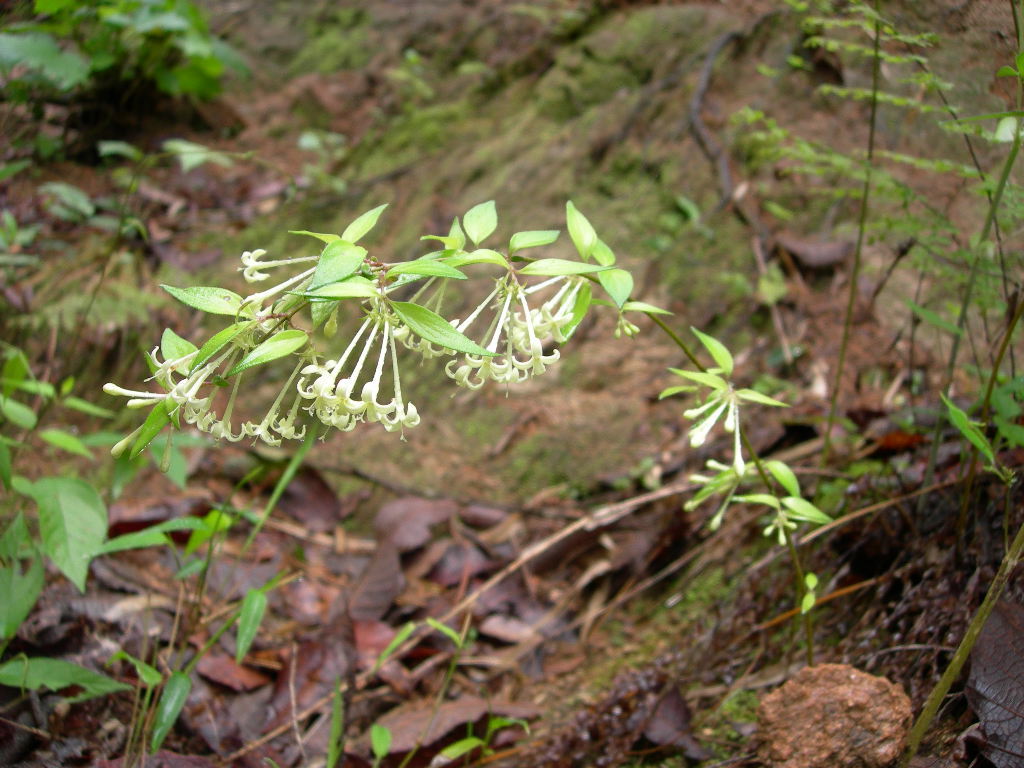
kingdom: Plantae
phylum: Tracheophyta
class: Magnoliopsida
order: Gentianales
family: Rubiaceae
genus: Bouvardia
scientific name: Bouvardia multiflora
